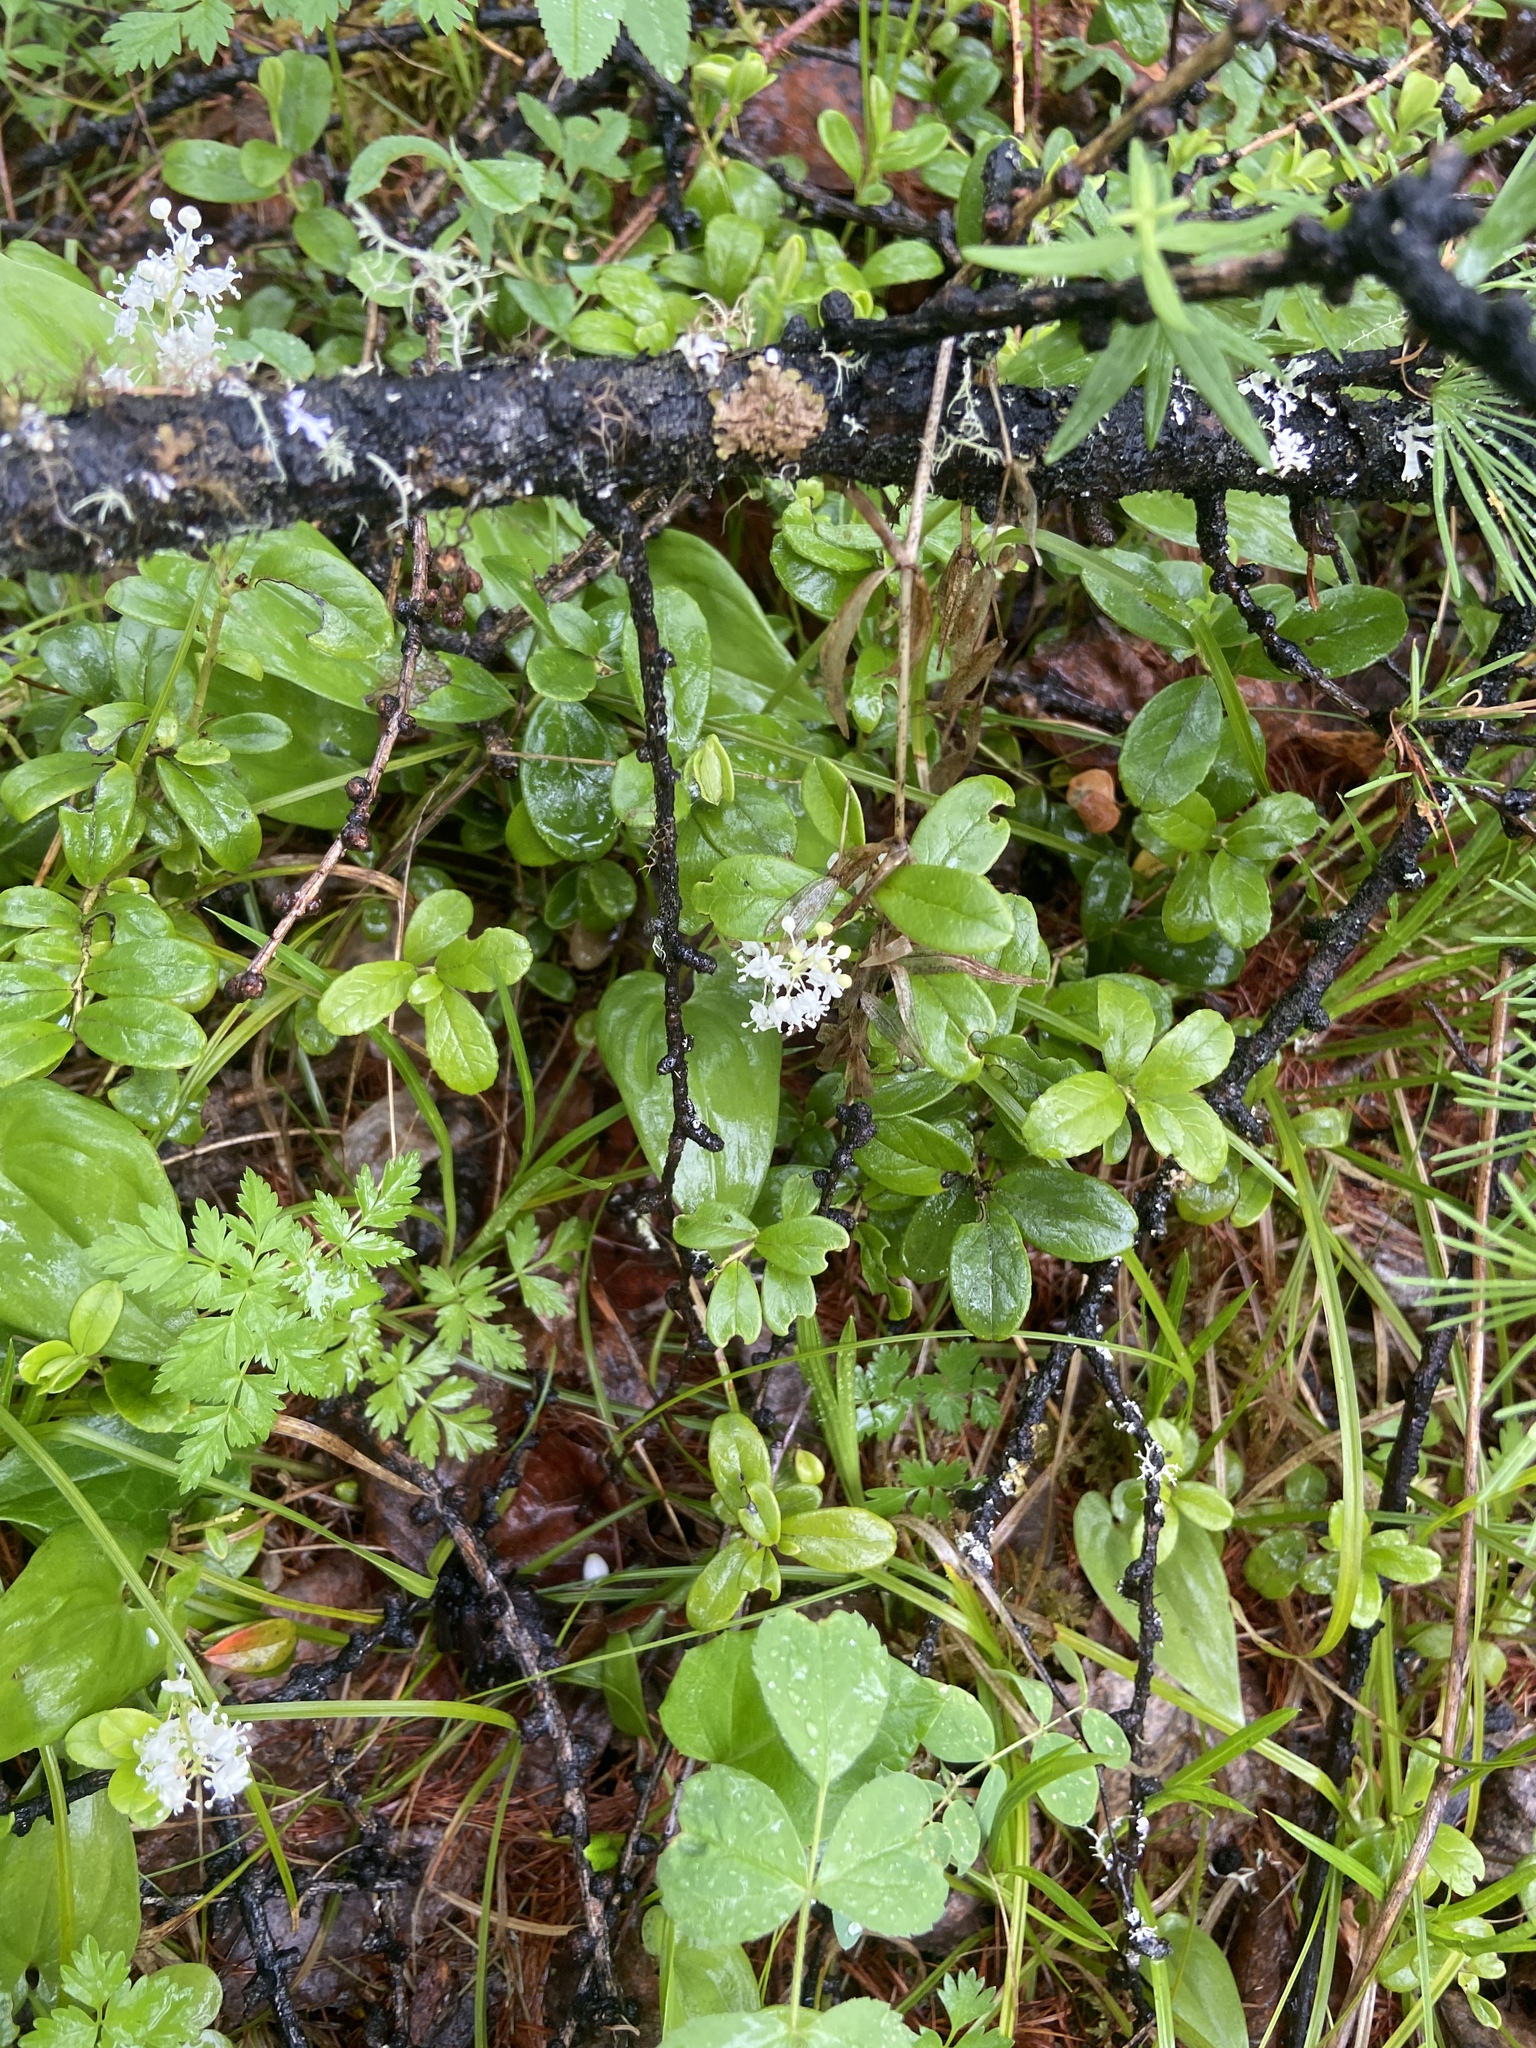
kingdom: Plantae
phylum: Tracheophyta
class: Liliopsida
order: Asparagales
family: Asparagaceae
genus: Maianthemum
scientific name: Maianthemum bifolium
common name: May lily
